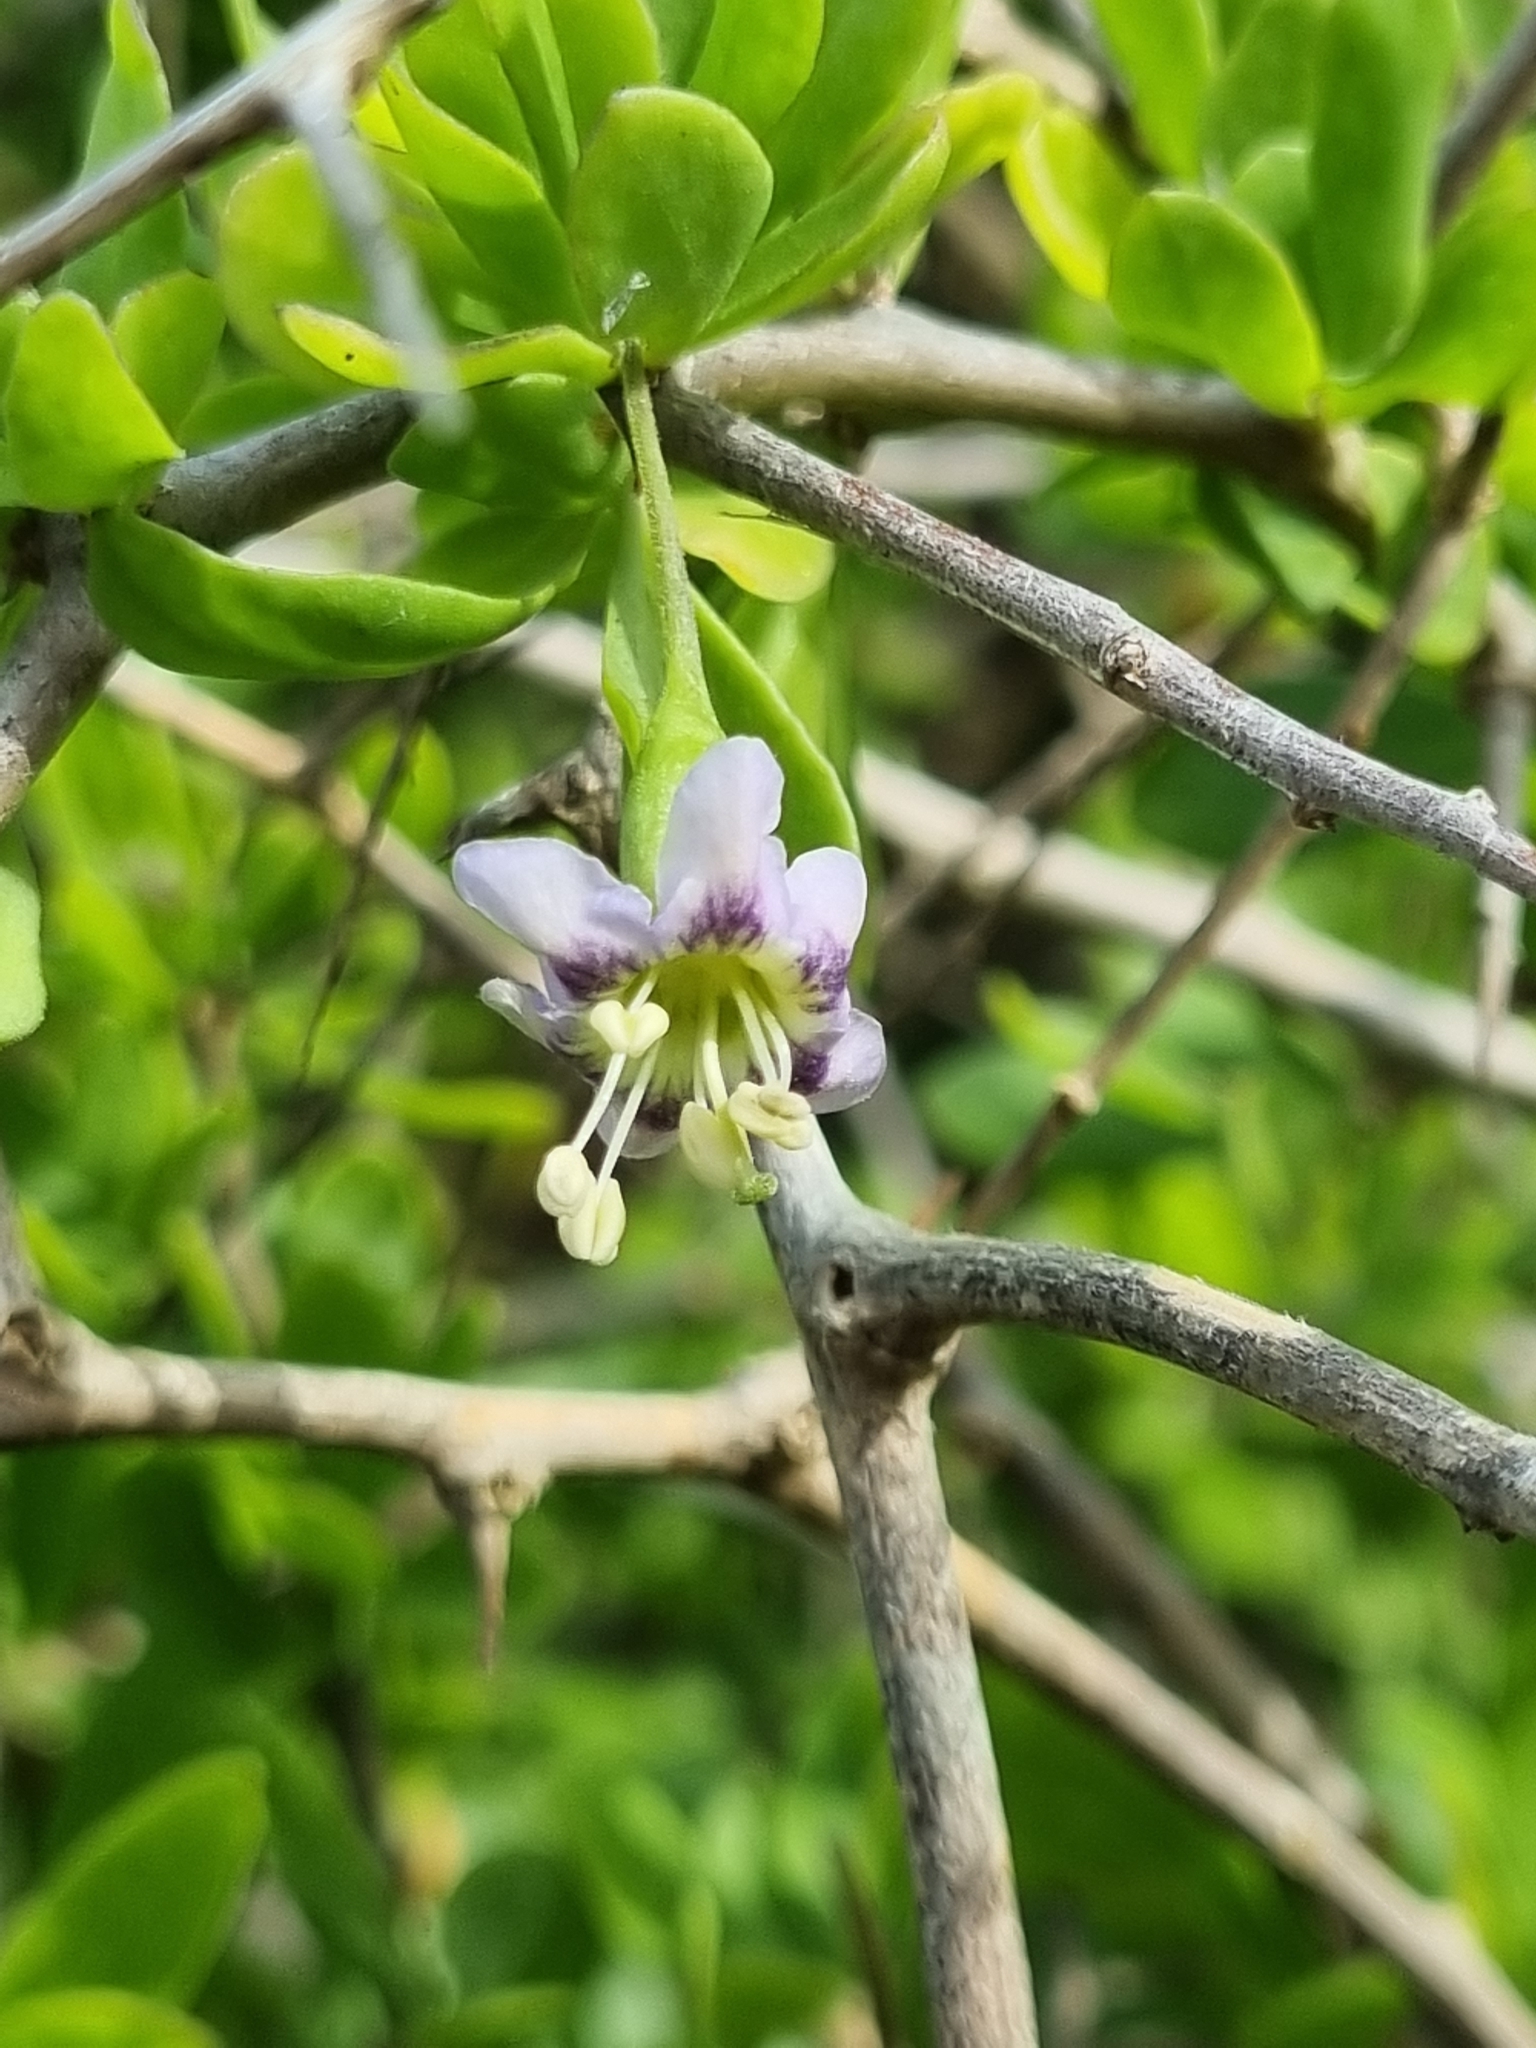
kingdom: Plantae
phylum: Tracheophyta
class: Magnoliopsida
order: Solanales
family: Solanaceae
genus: Lycium
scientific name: Lycium ferocissimum
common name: African boxthorn
